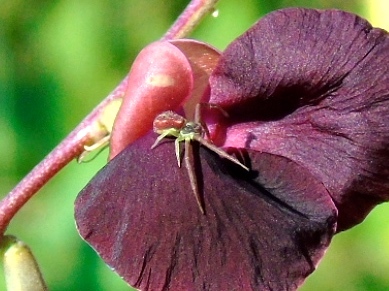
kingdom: Animalia
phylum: Arthropoda
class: Arachnida
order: Araneae
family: Thomisidae
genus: Mecaphesa
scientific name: Mecaphesa
